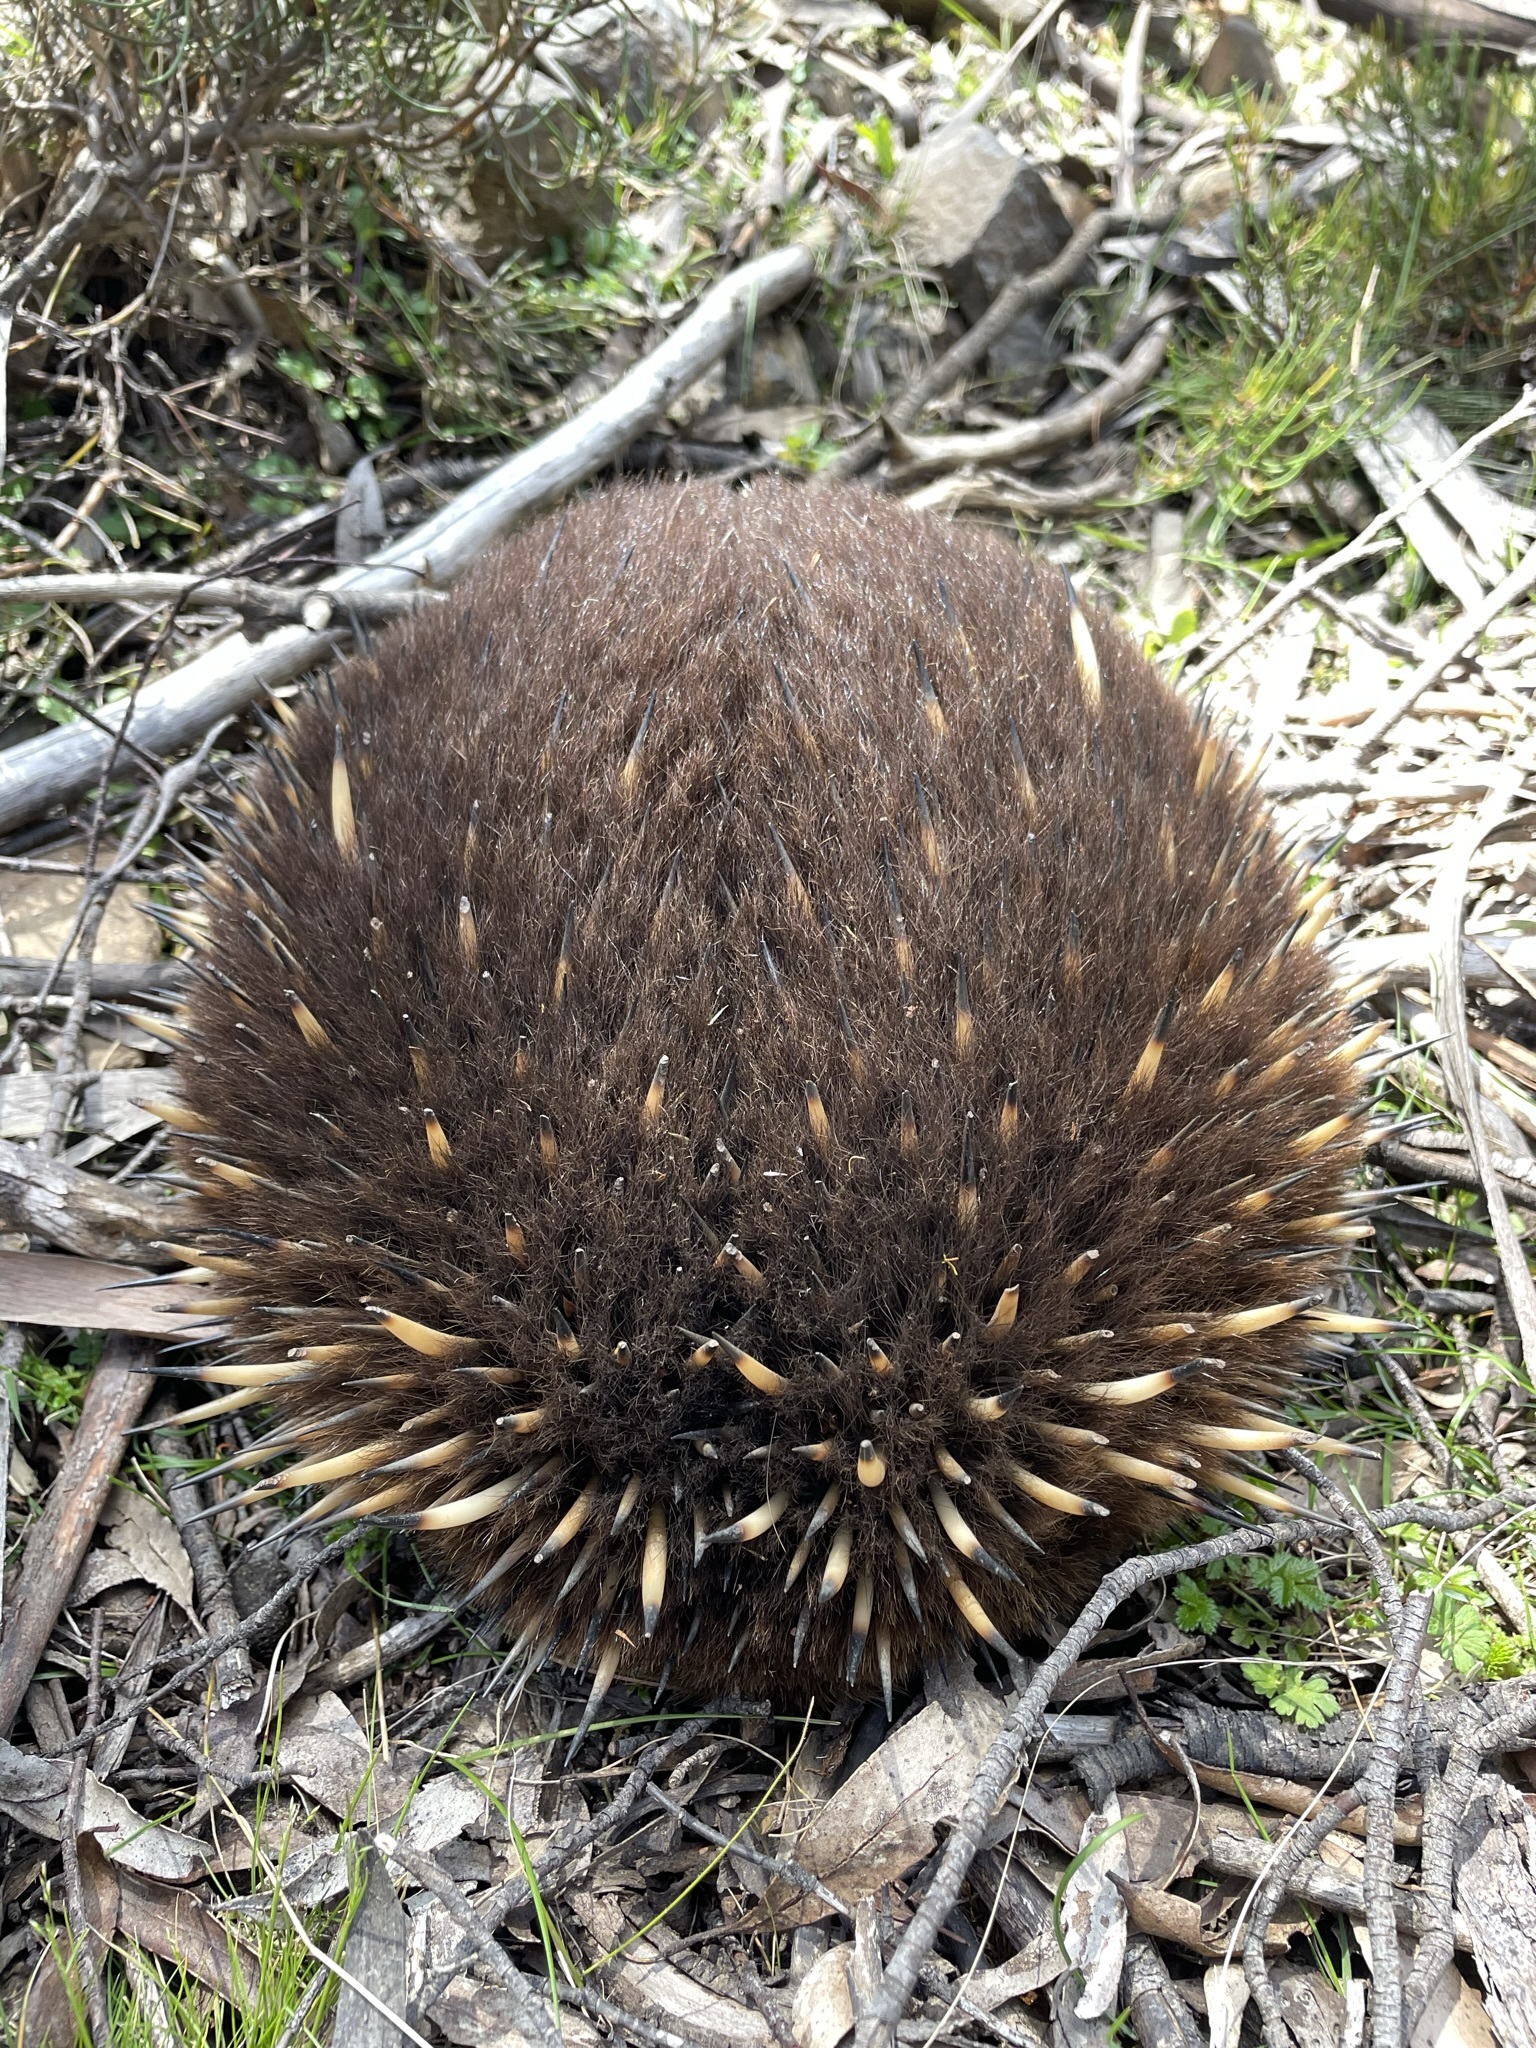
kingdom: Animalia
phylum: Chordata
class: Mammalia
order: Monotremata
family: Tachyglossidae
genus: Tachyglossus
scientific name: Tachyglossus aculeatus
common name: Short-beaked echidna
